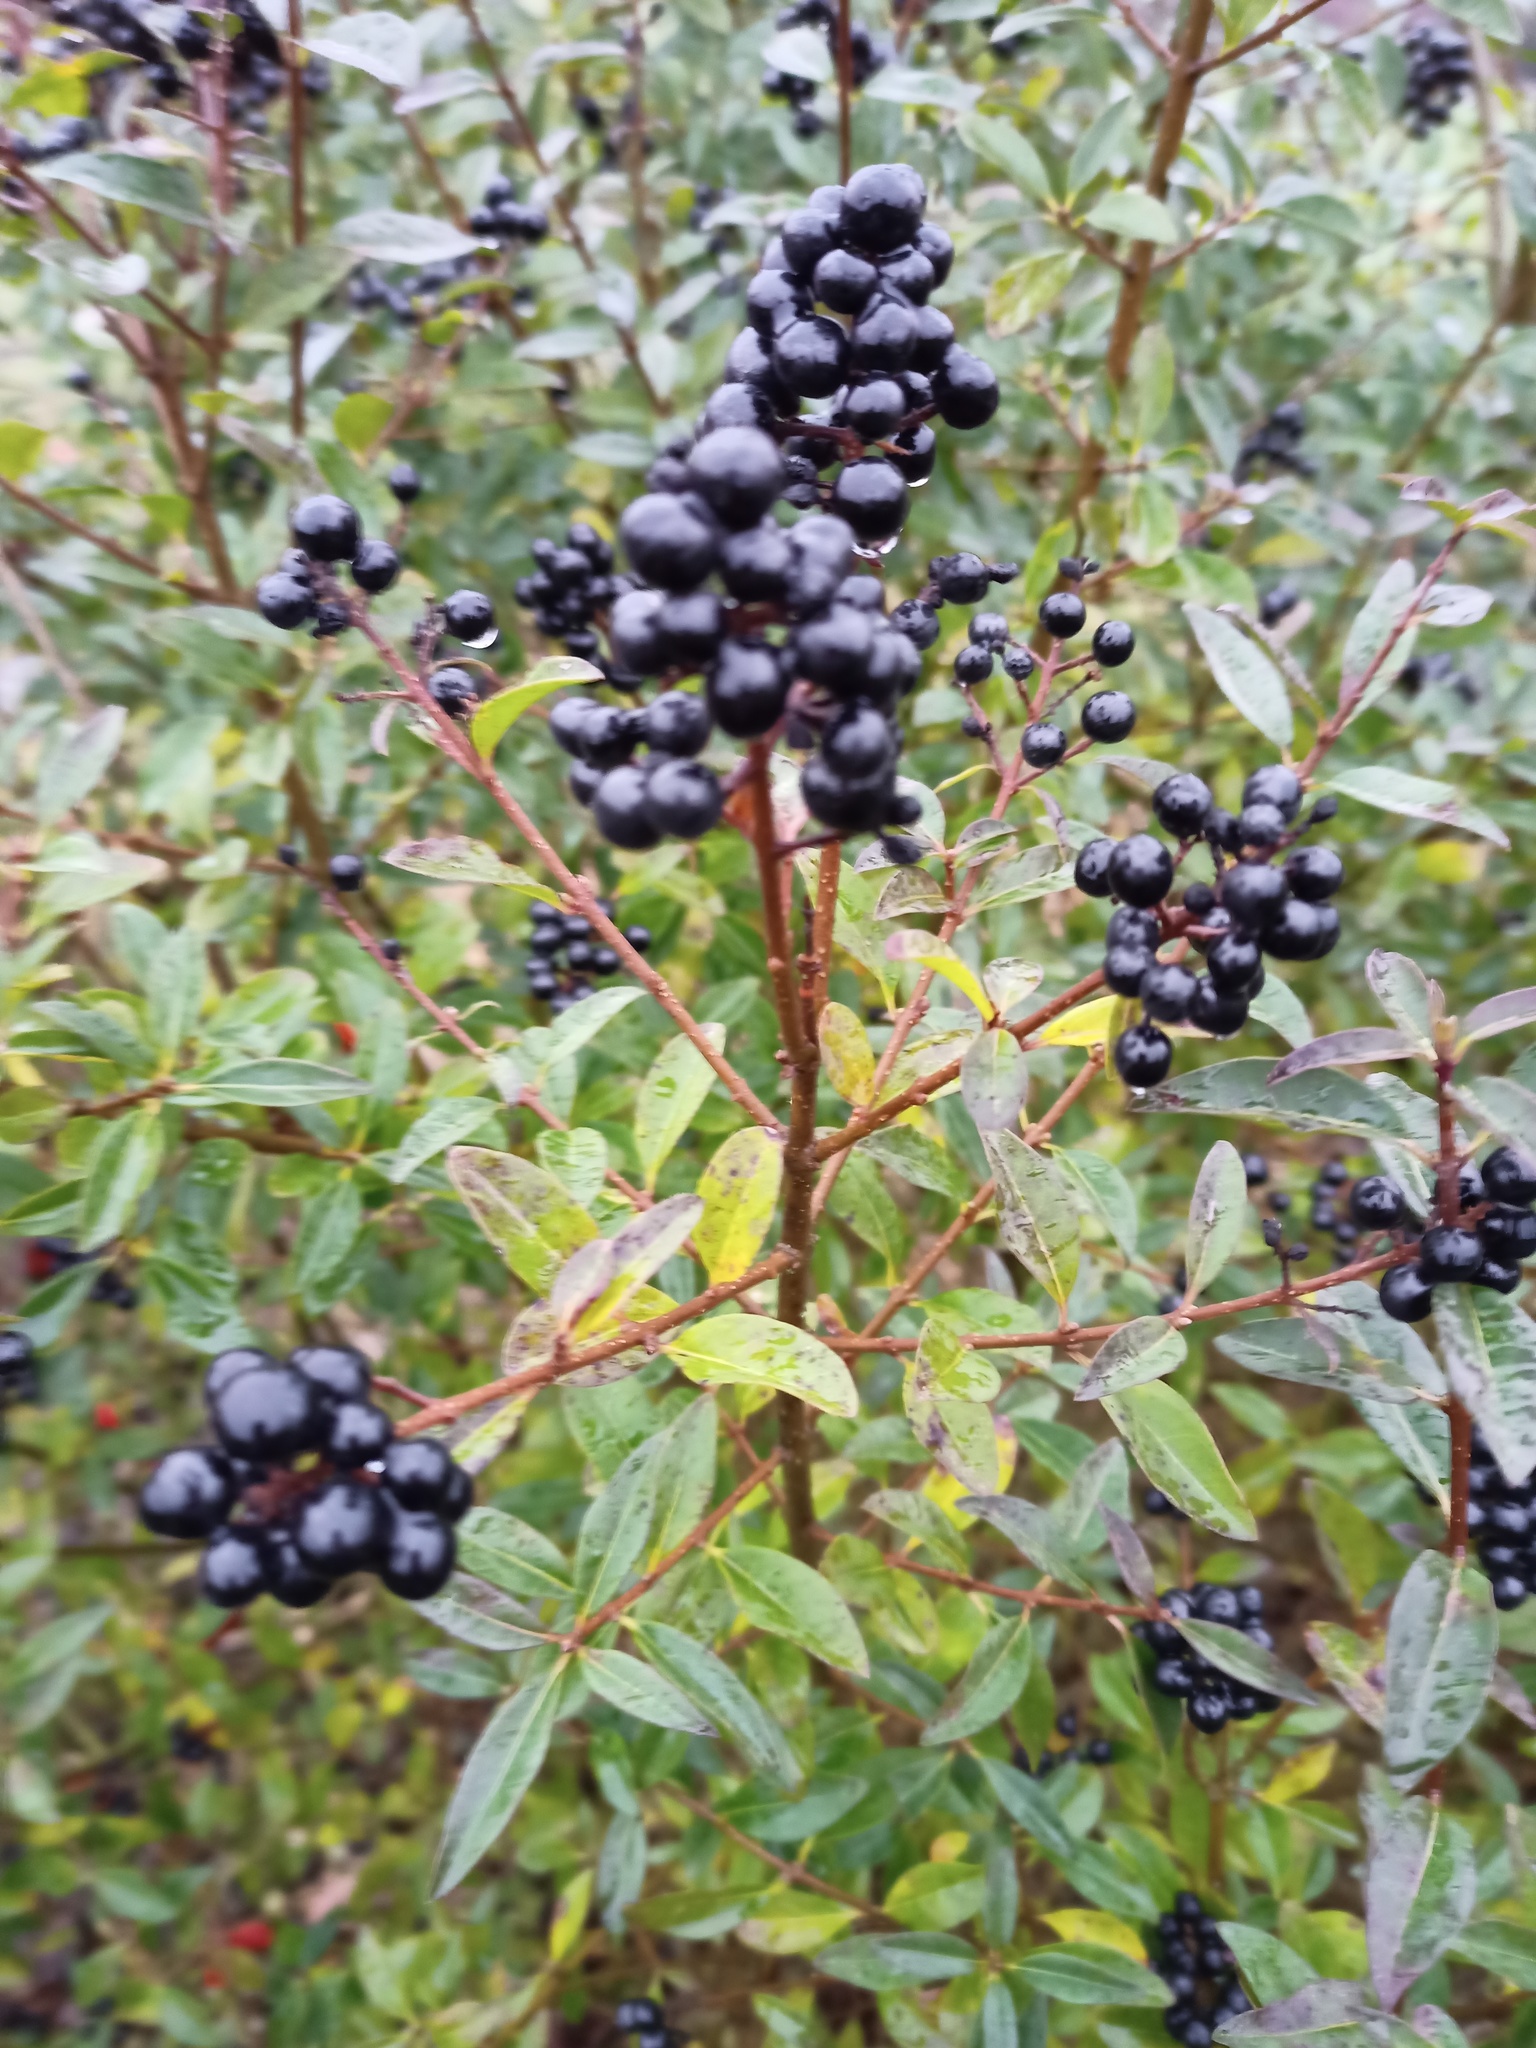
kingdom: Plantae
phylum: Tracheophyta
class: Magnoliopsida
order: Lamiales
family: Oleaceae
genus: Ligustrum
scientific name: Ligustrum vulgare
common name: Wild privet
